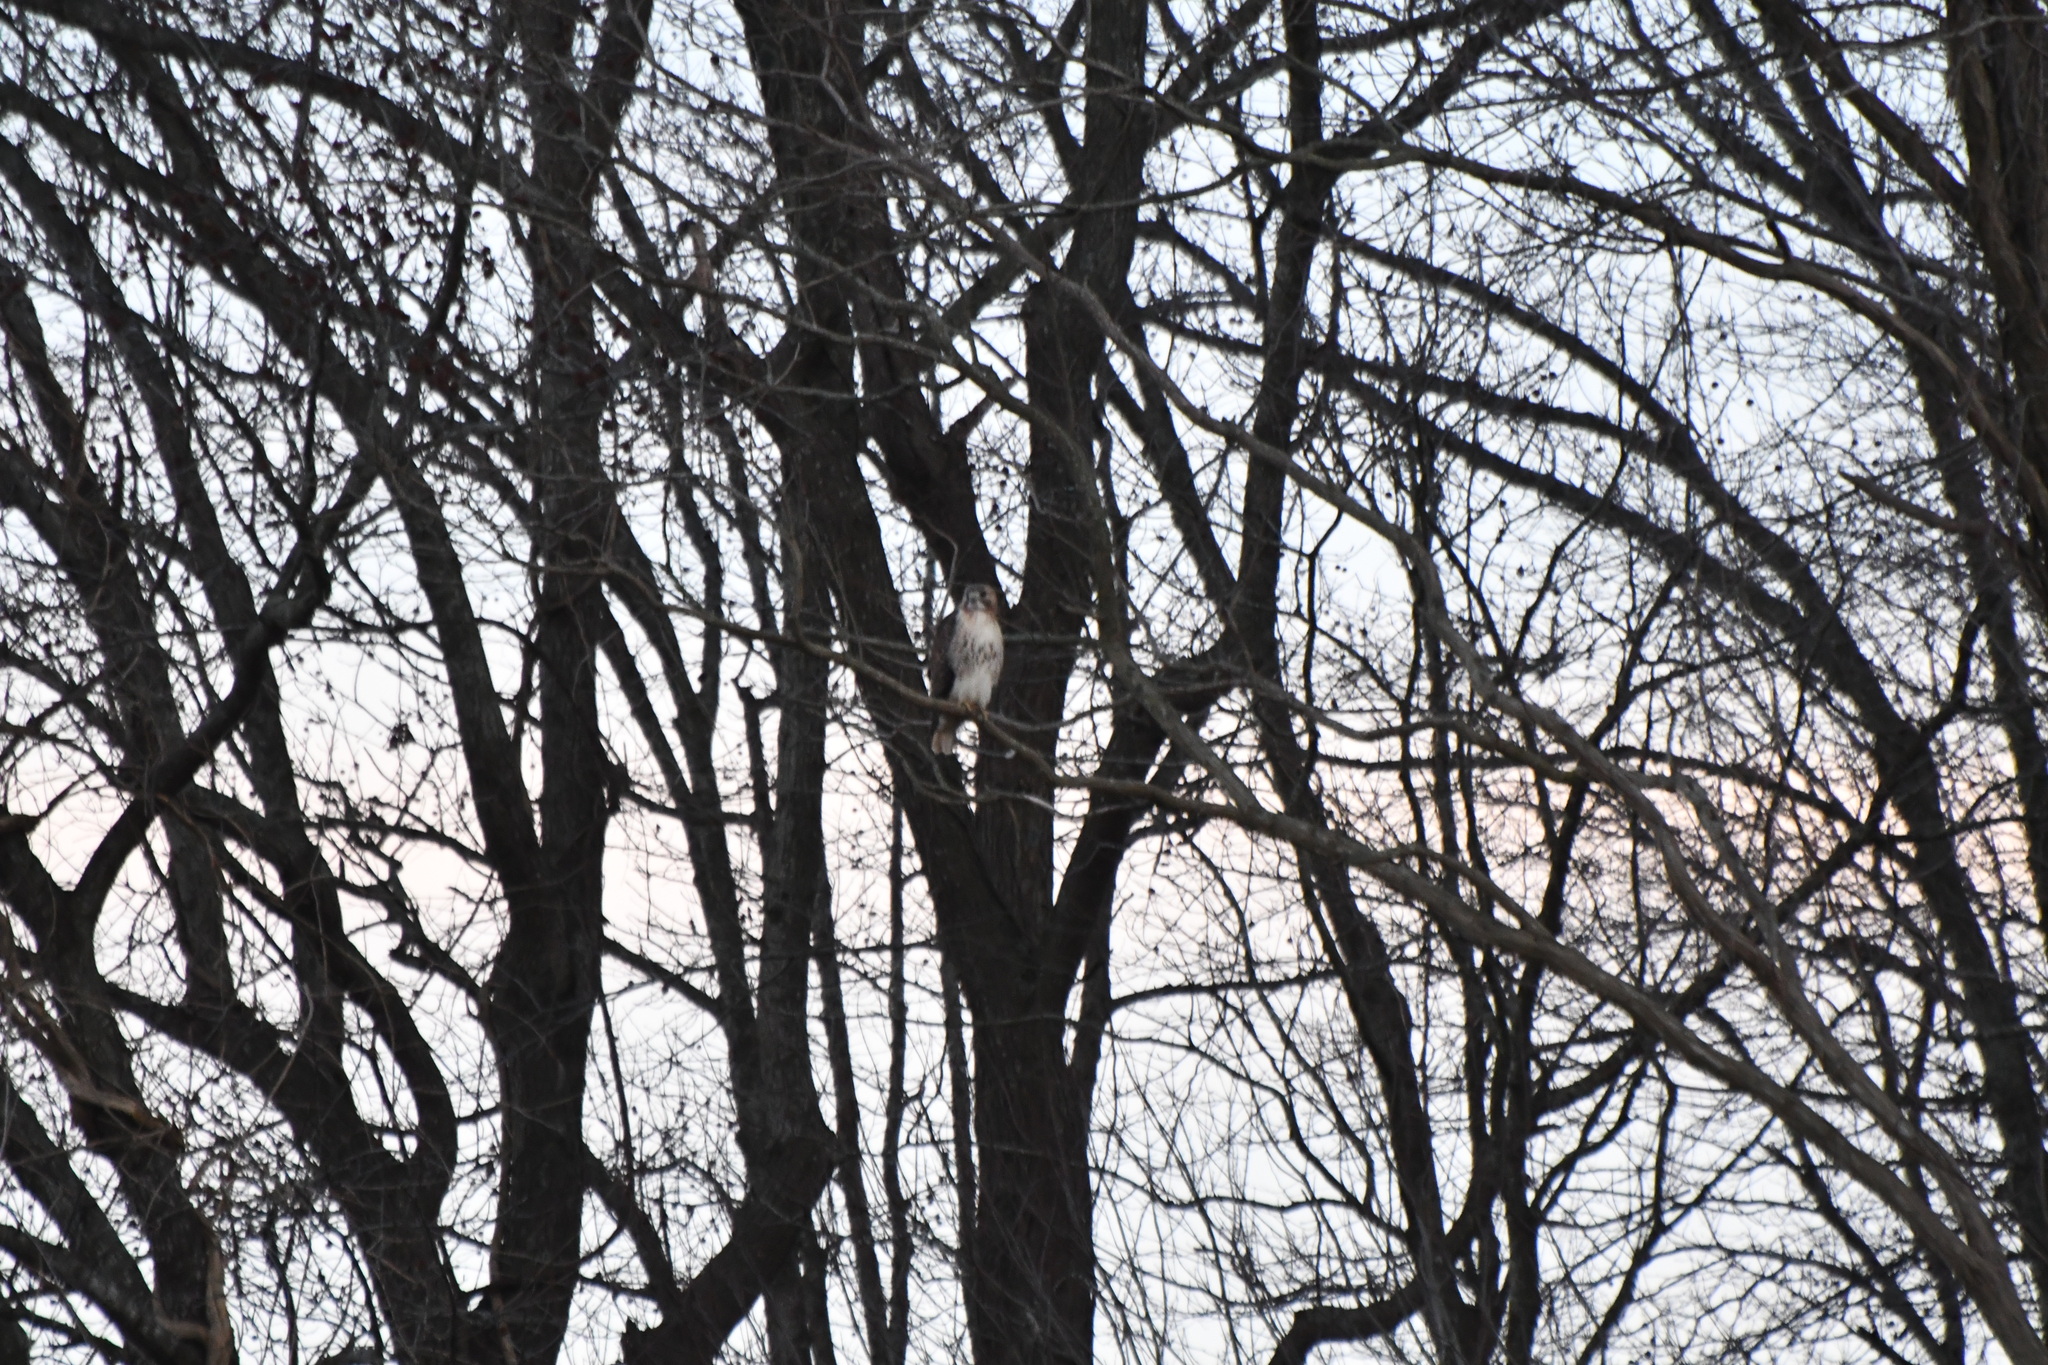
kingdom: Animalia
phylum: Chordata
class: Aves
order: Accipitriformes
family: Accipitridae
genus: Buteo
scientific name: Buteo jamaicensis
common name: Red-tailed hawk
